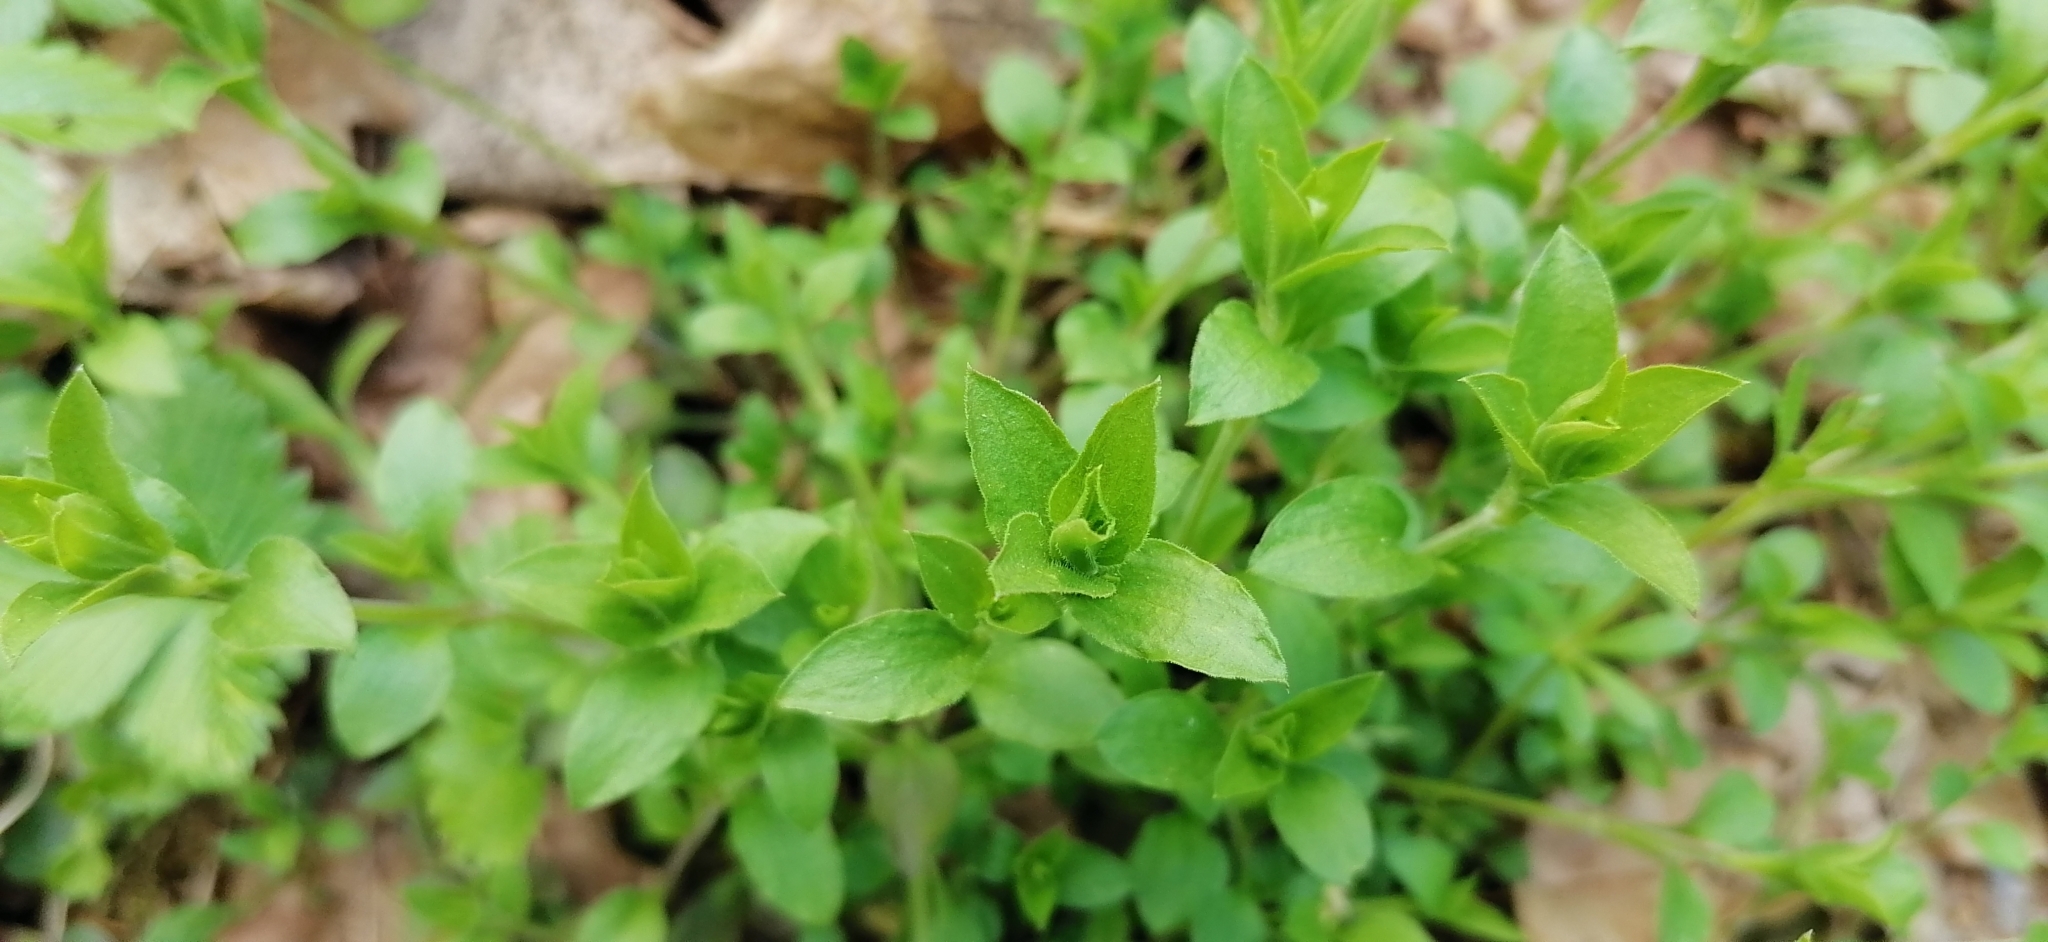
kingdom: Plantae
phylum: Tracheophyta
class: Magnoliopsida
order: Caryophyllales
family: Caryophyllaceae
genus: Moehringia
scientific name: Moehringia trinervia
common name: Three-nerved sandwort
